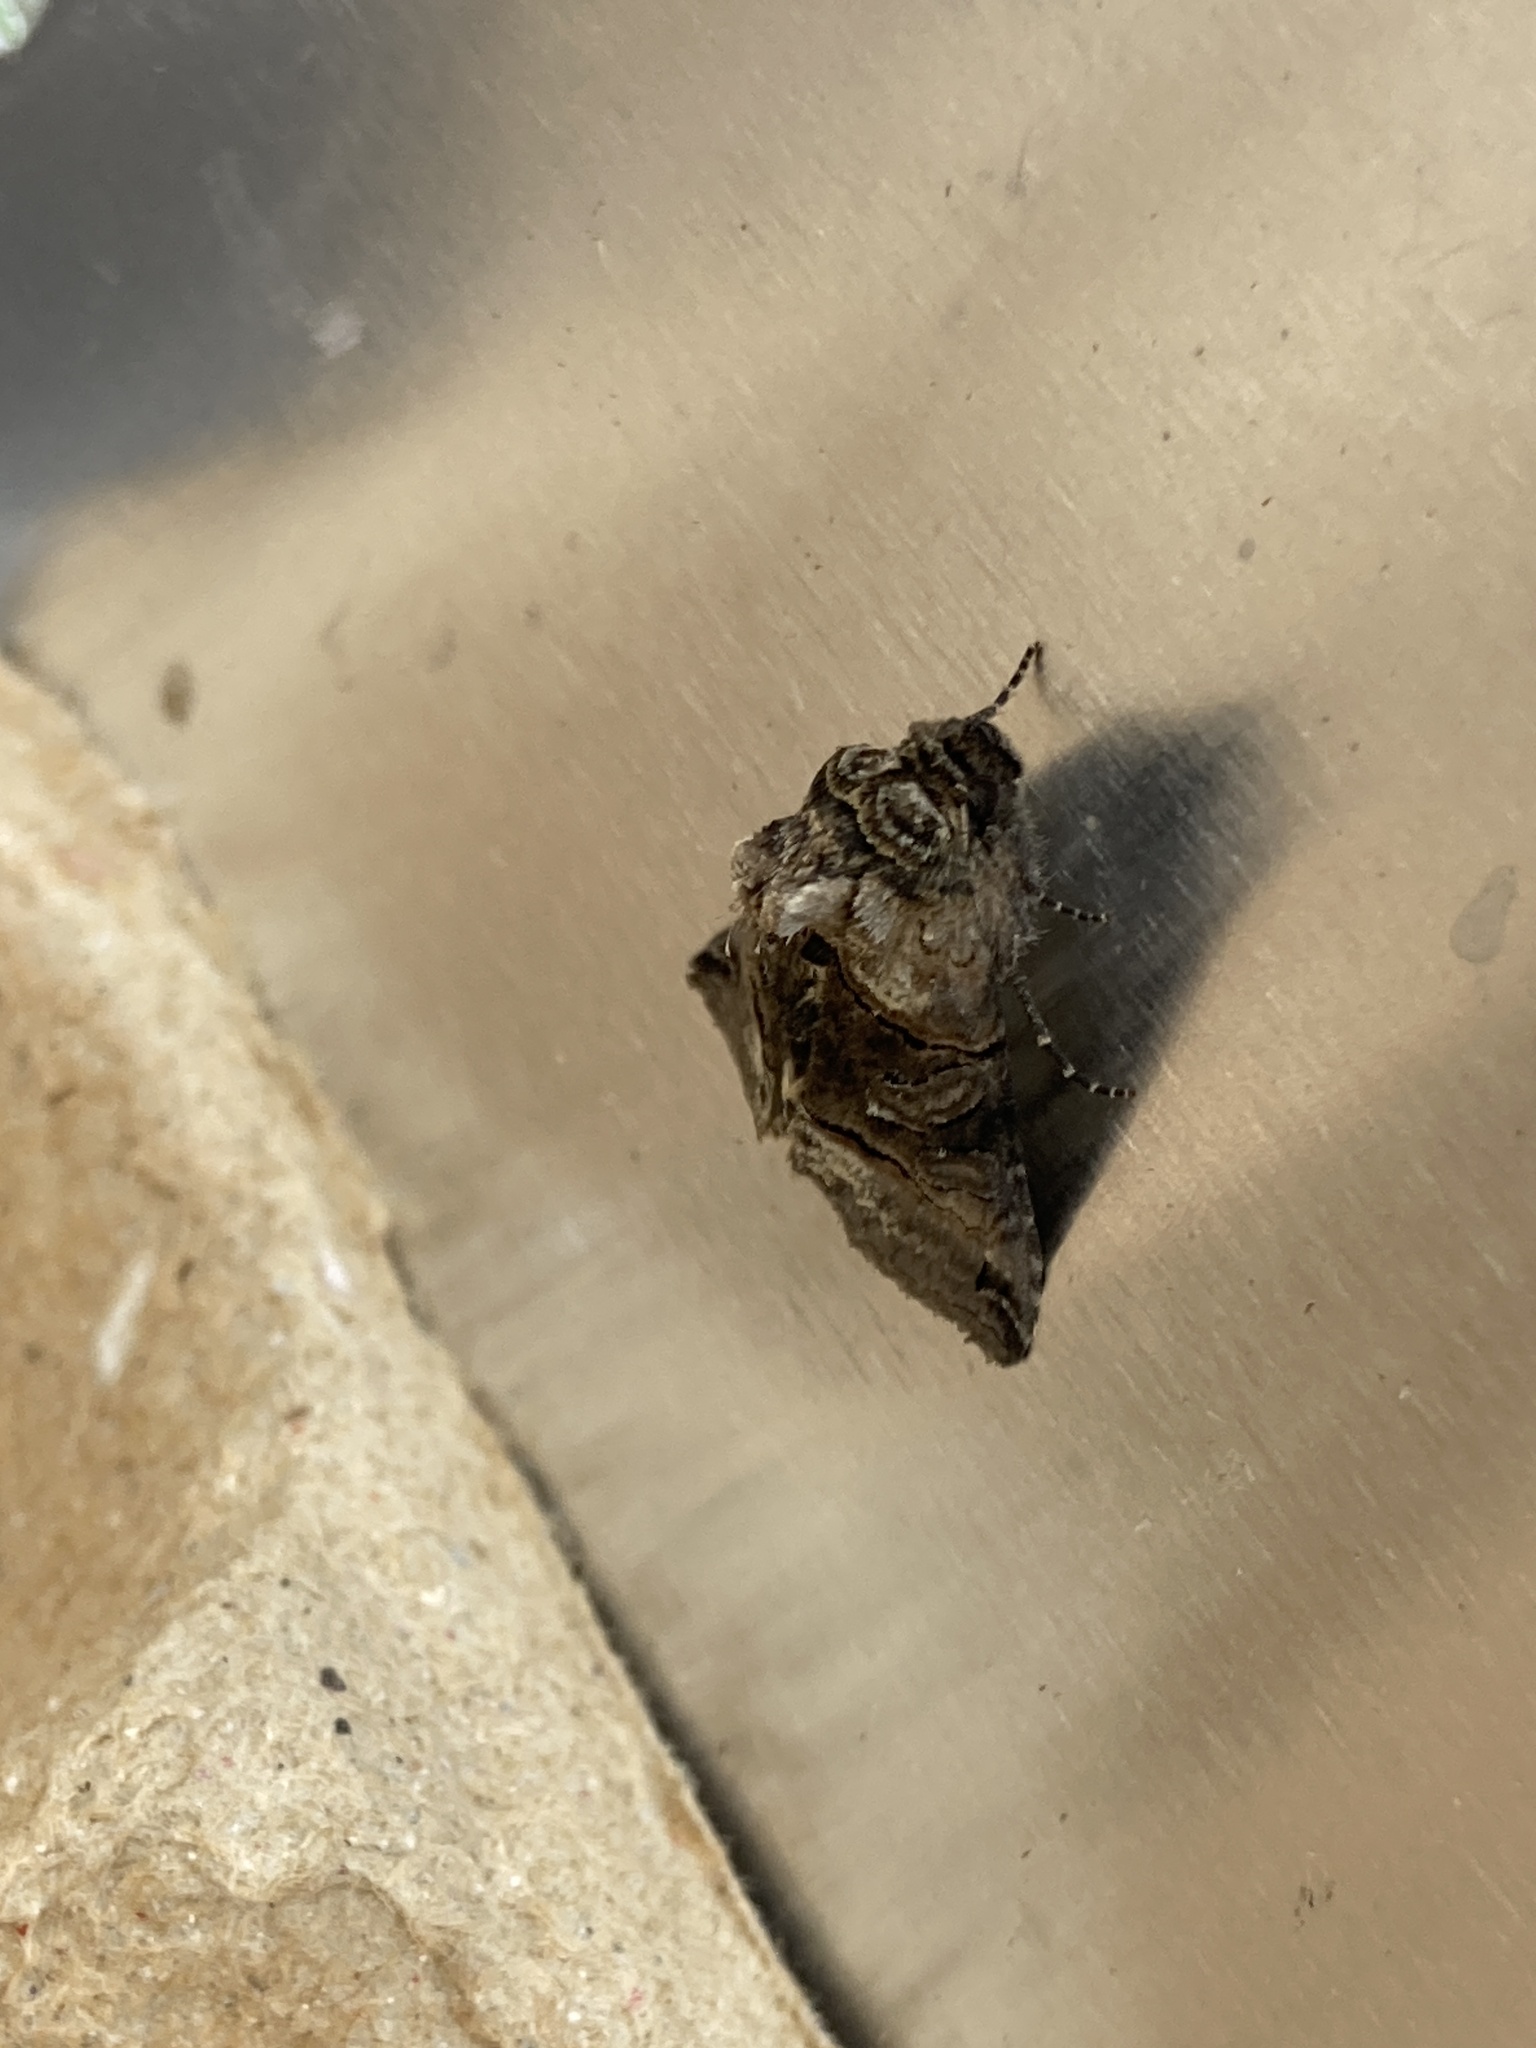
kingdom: Animalia
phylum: Arthropoda
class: Insecta
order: Lepidoptera
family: Noctuidae
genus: Abrostola
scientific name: Abrostola tripartita
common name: Spectacle
